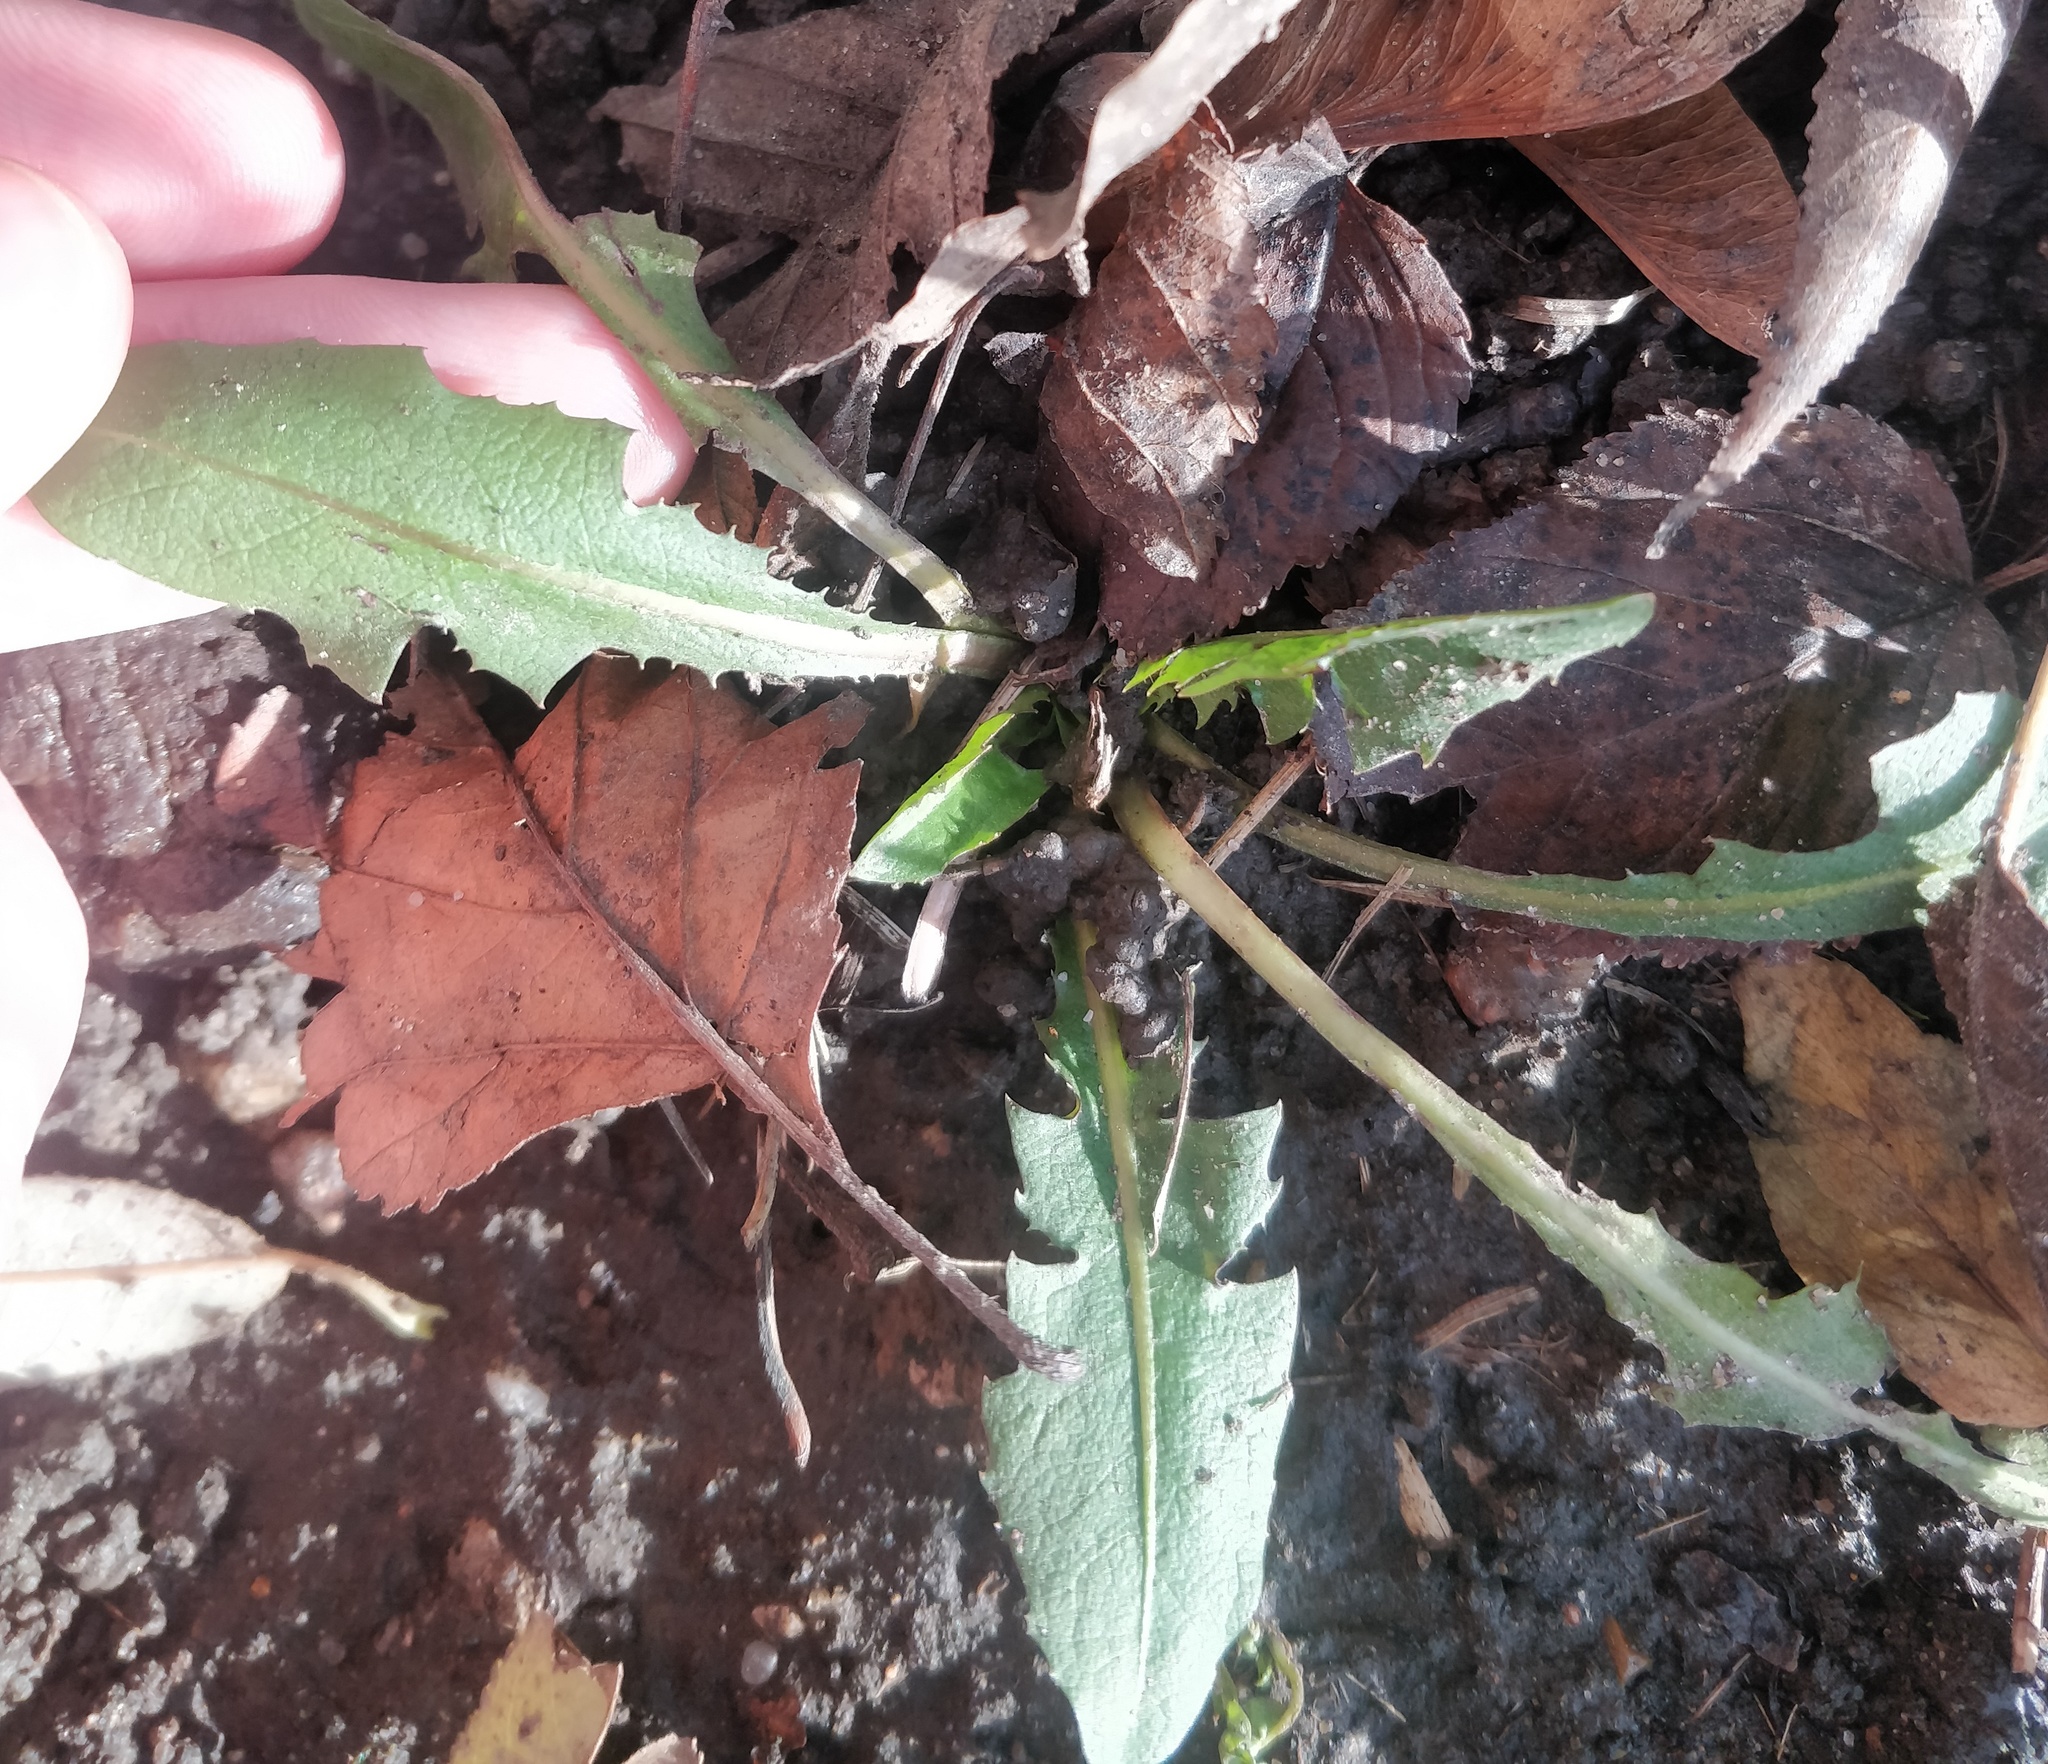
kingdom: Plantae
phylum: Tracheophyta
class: Magnoliopsida
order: Asterales
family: Asteraceae
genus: Taraxacum
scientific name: Taraxacum officinale
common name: Common dandelion
